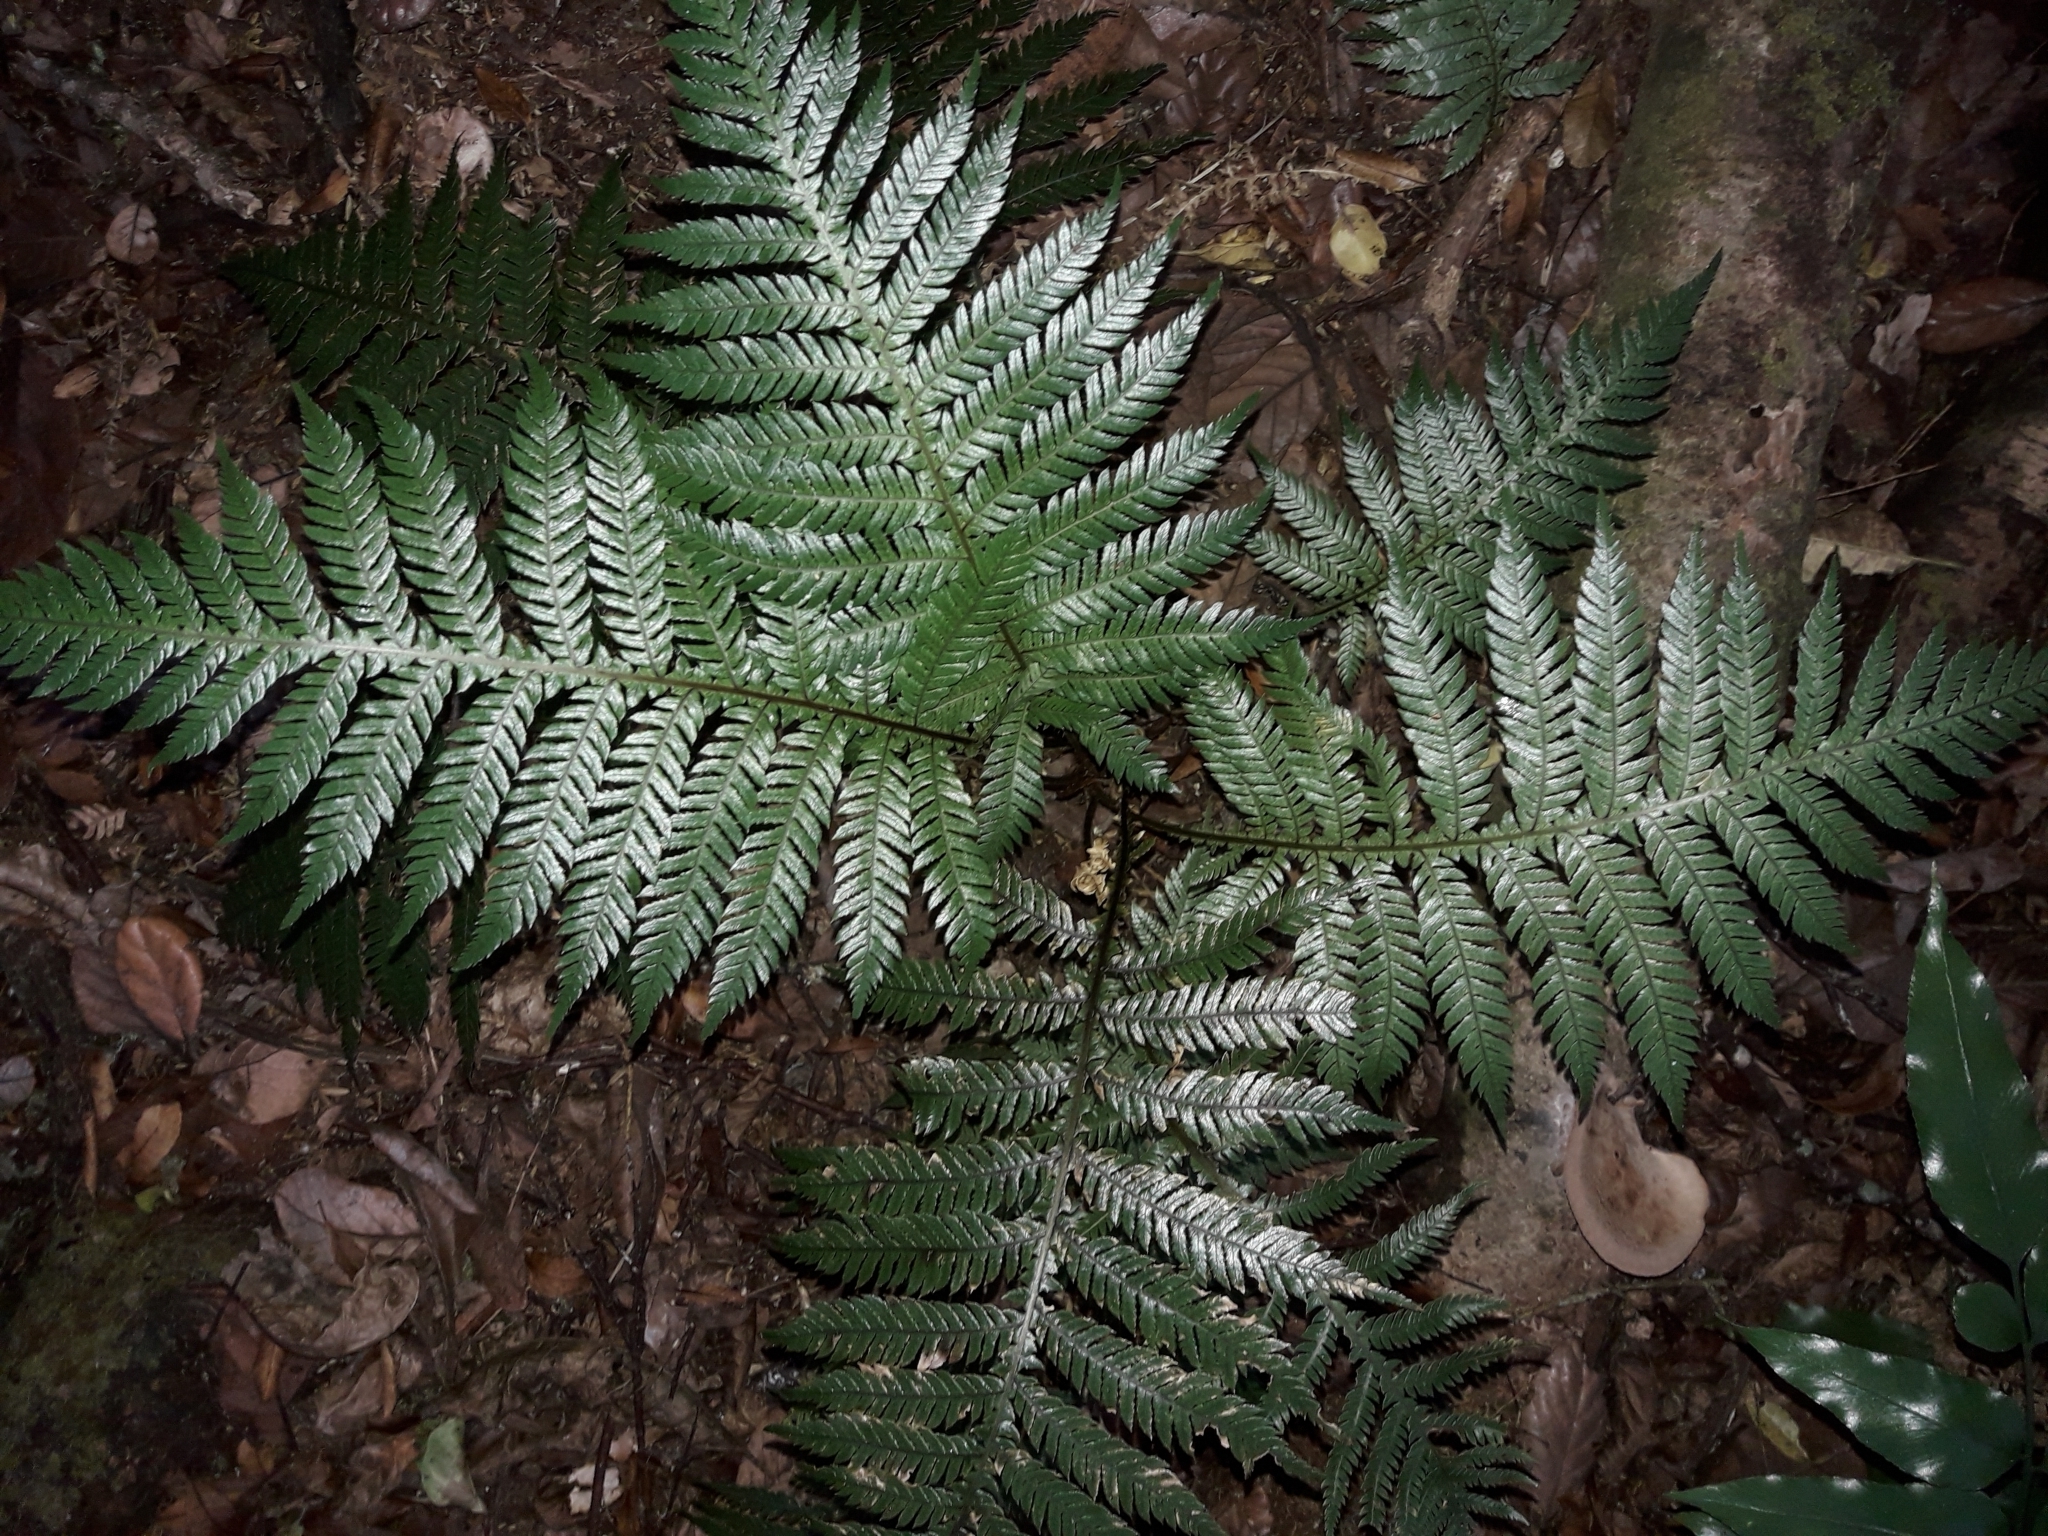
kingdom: Plantae
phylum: Tracheophyta
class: Polypodiopsida
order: Polypodiales
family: Blechnaceae
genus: Diploblechnum
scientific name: Diploblechnum fraseri
